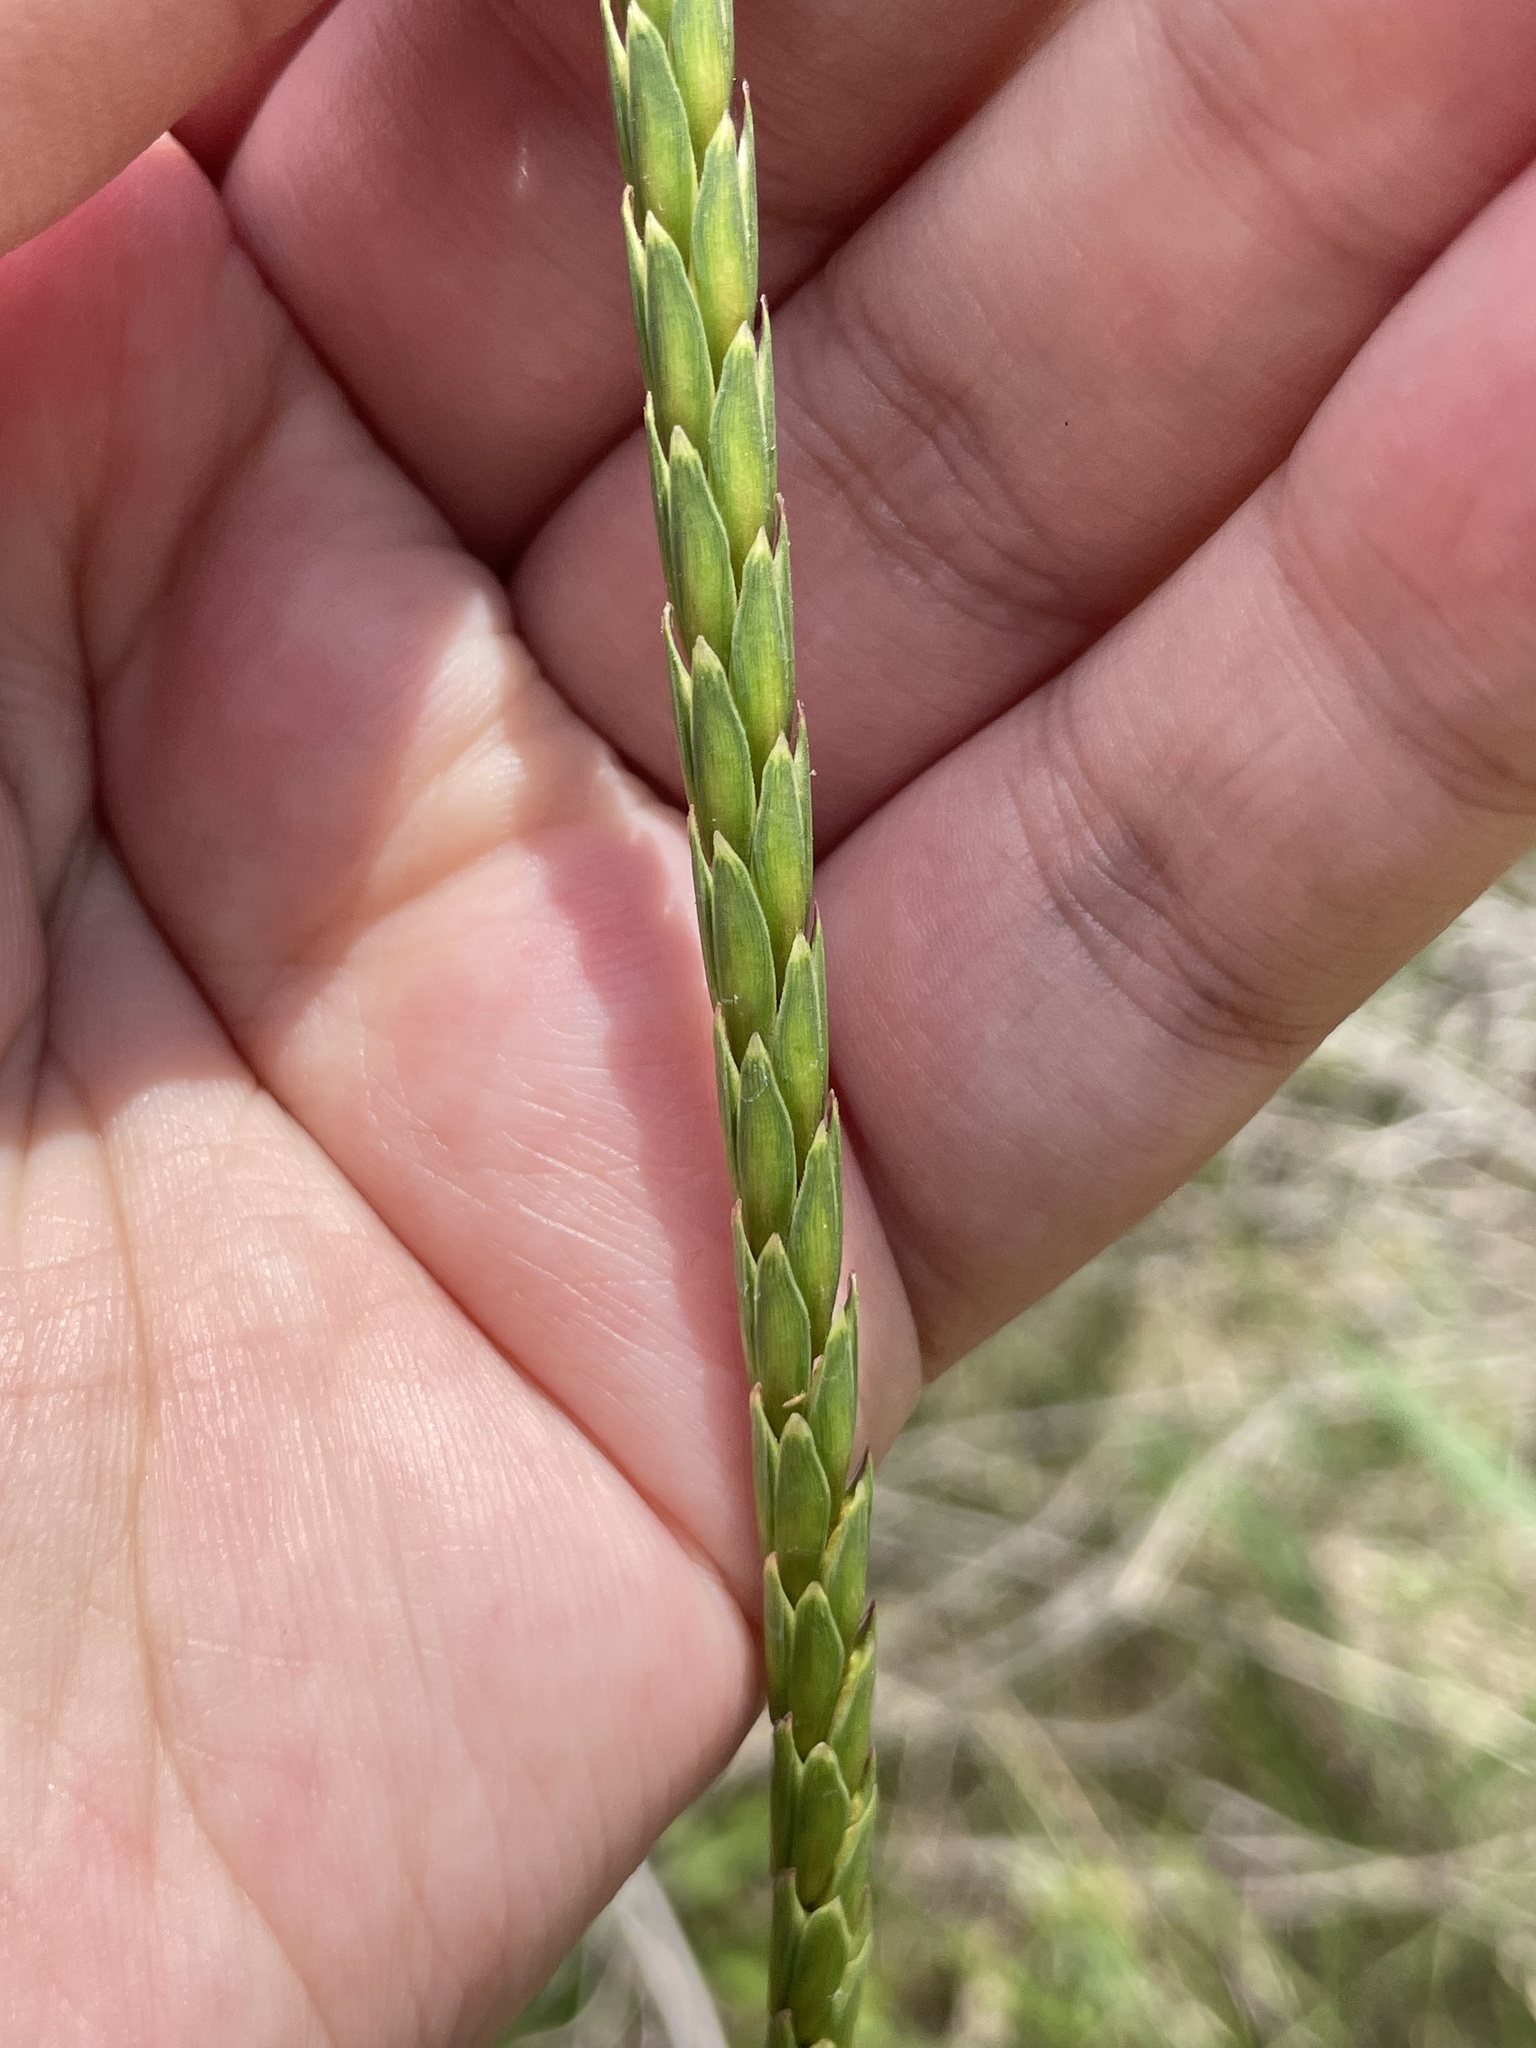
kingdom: Plantae
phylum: Tracheophyta
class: Liliopsida
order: Poales
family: Poaceae
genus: Tripsacum
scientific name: Tripsacum dactyloides
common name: Buffalo-grass
